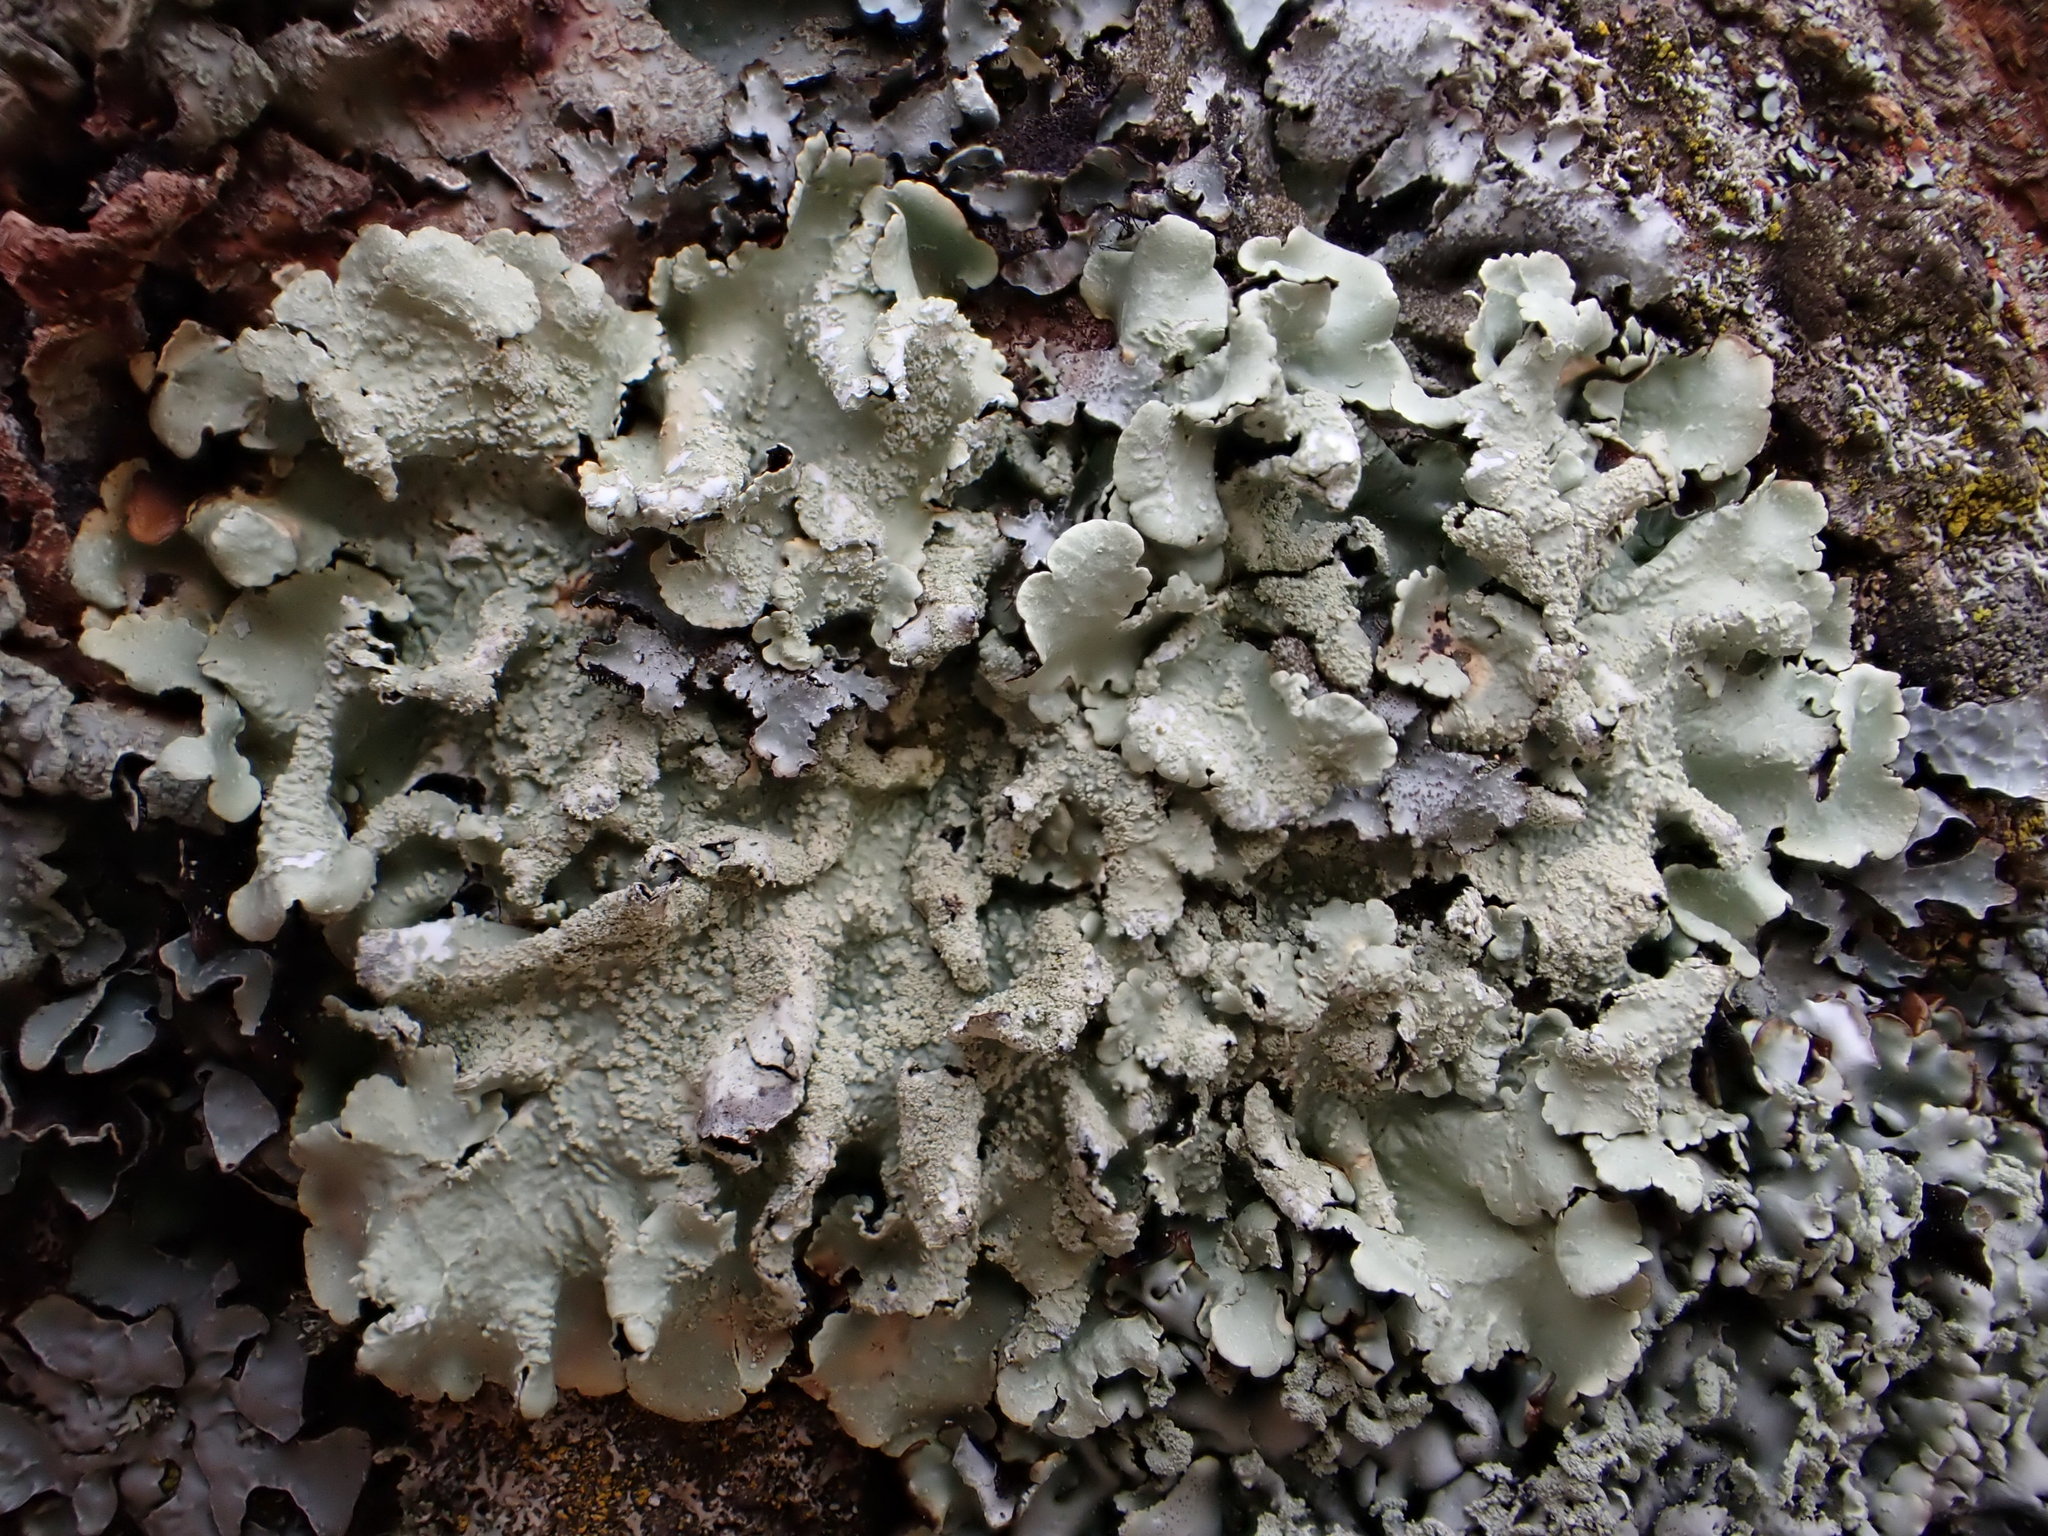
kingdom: Fungi
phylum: Ascomycota
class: Lecanoromycetes
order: Lecanorales
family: Parmeliaceae
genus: Flavoparmelia
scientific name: Flavoparmelia caperata
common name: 40-mile per hour lichen
